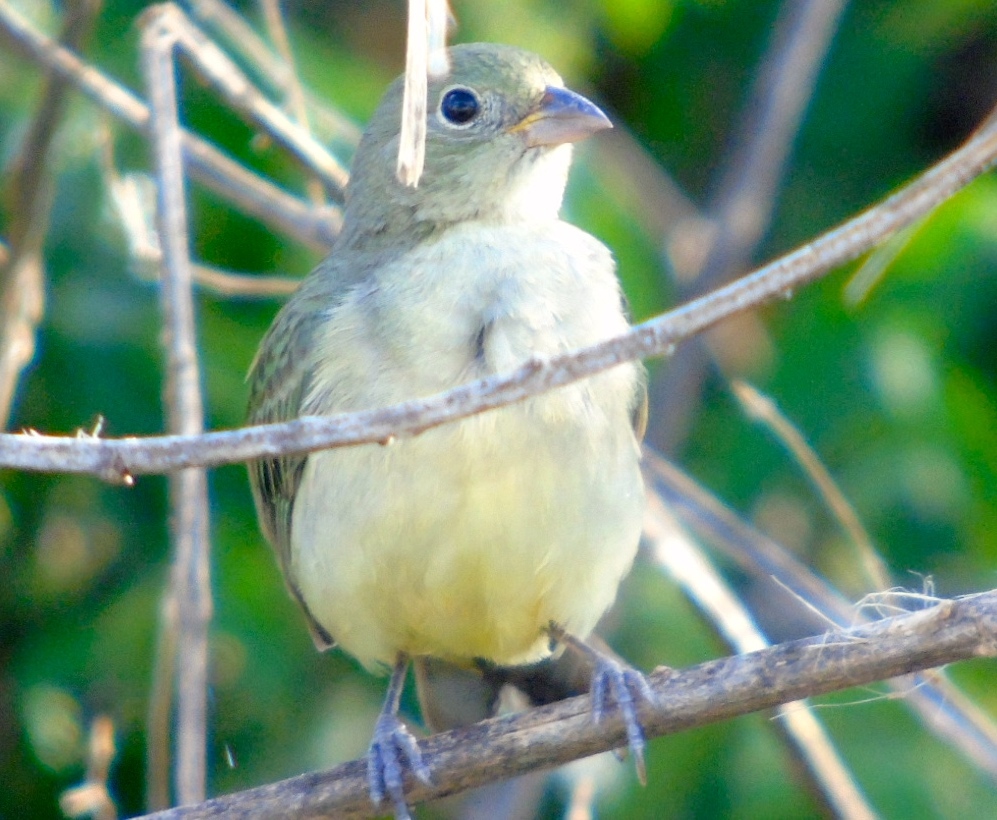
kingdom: Animalia
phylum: Chordata
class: Aves
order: Passeriformes
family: Cardinalidae
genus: Passerina
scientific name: Passerina ciris
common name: Painted bunting
